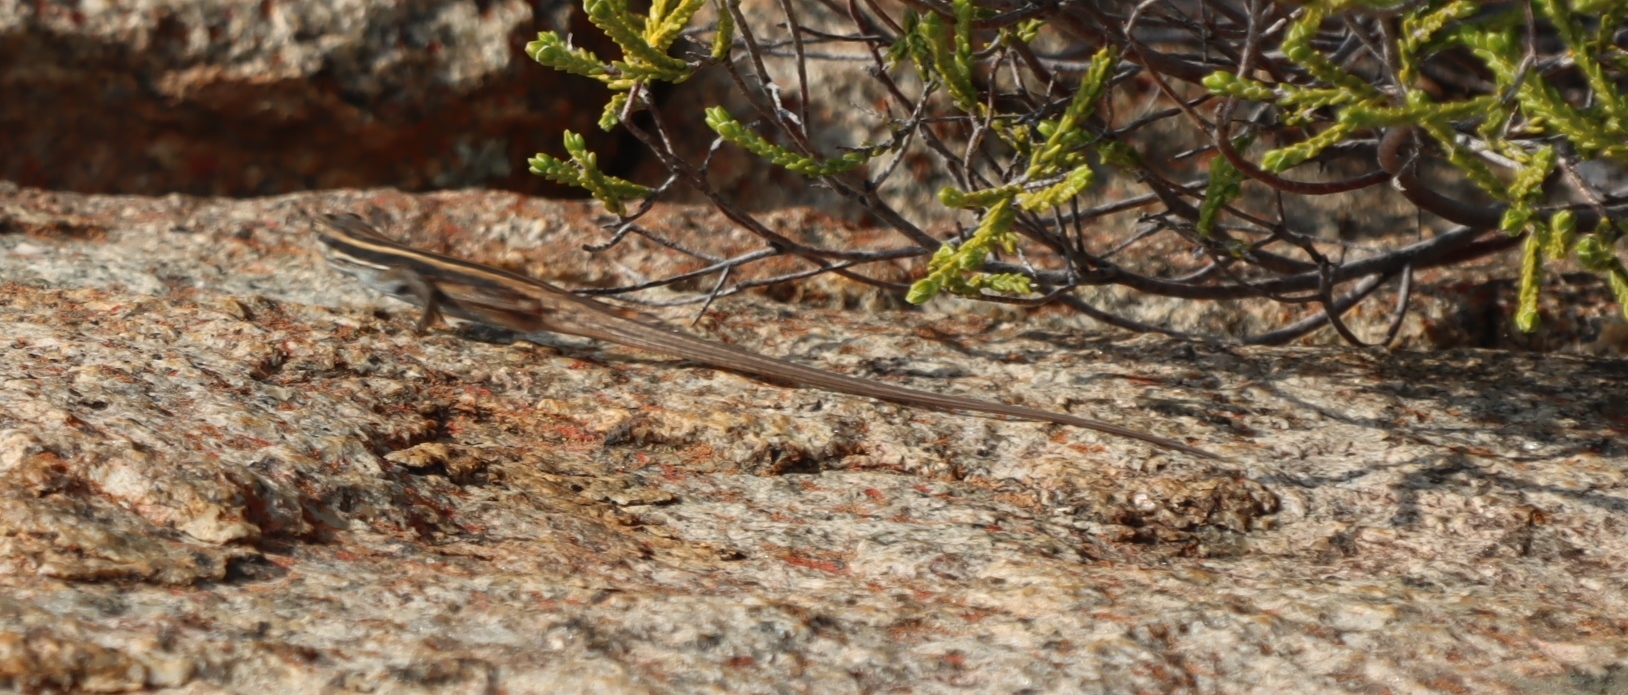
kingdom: Animalia
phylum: Chordata
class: Squamata
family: Lacertidae
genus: Pedioplanis
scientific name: Pedioplanis lineoocellata
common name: Spotted sand lizard
